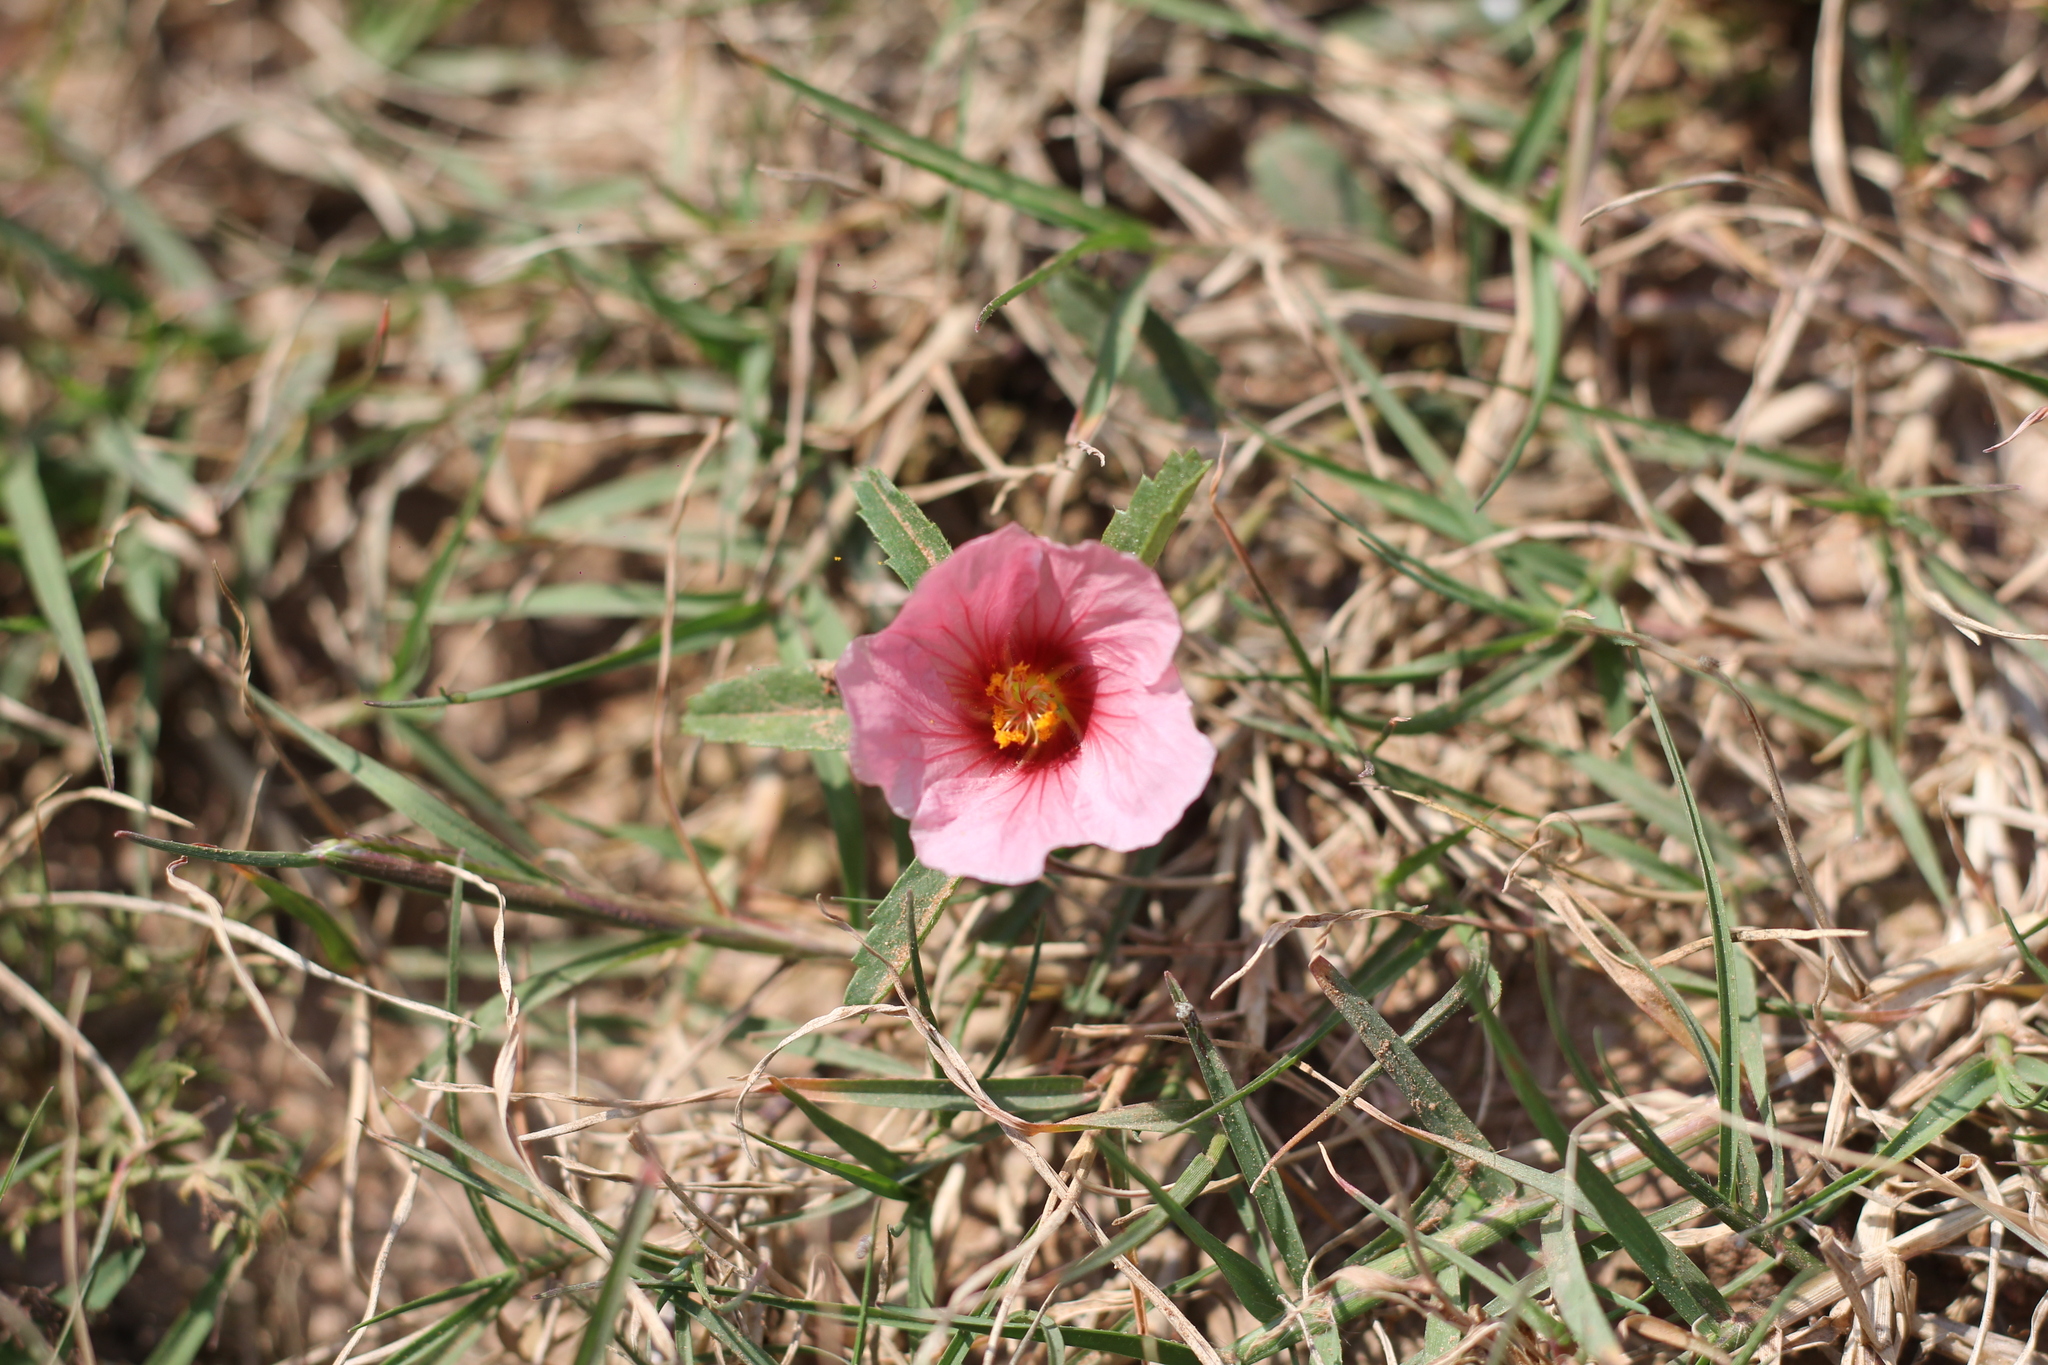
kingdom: Plantae
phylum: Tracheophyta
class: Magnoliopsida
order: Malvales
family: Malvaceae
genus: Sida
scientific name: Sida anomala
